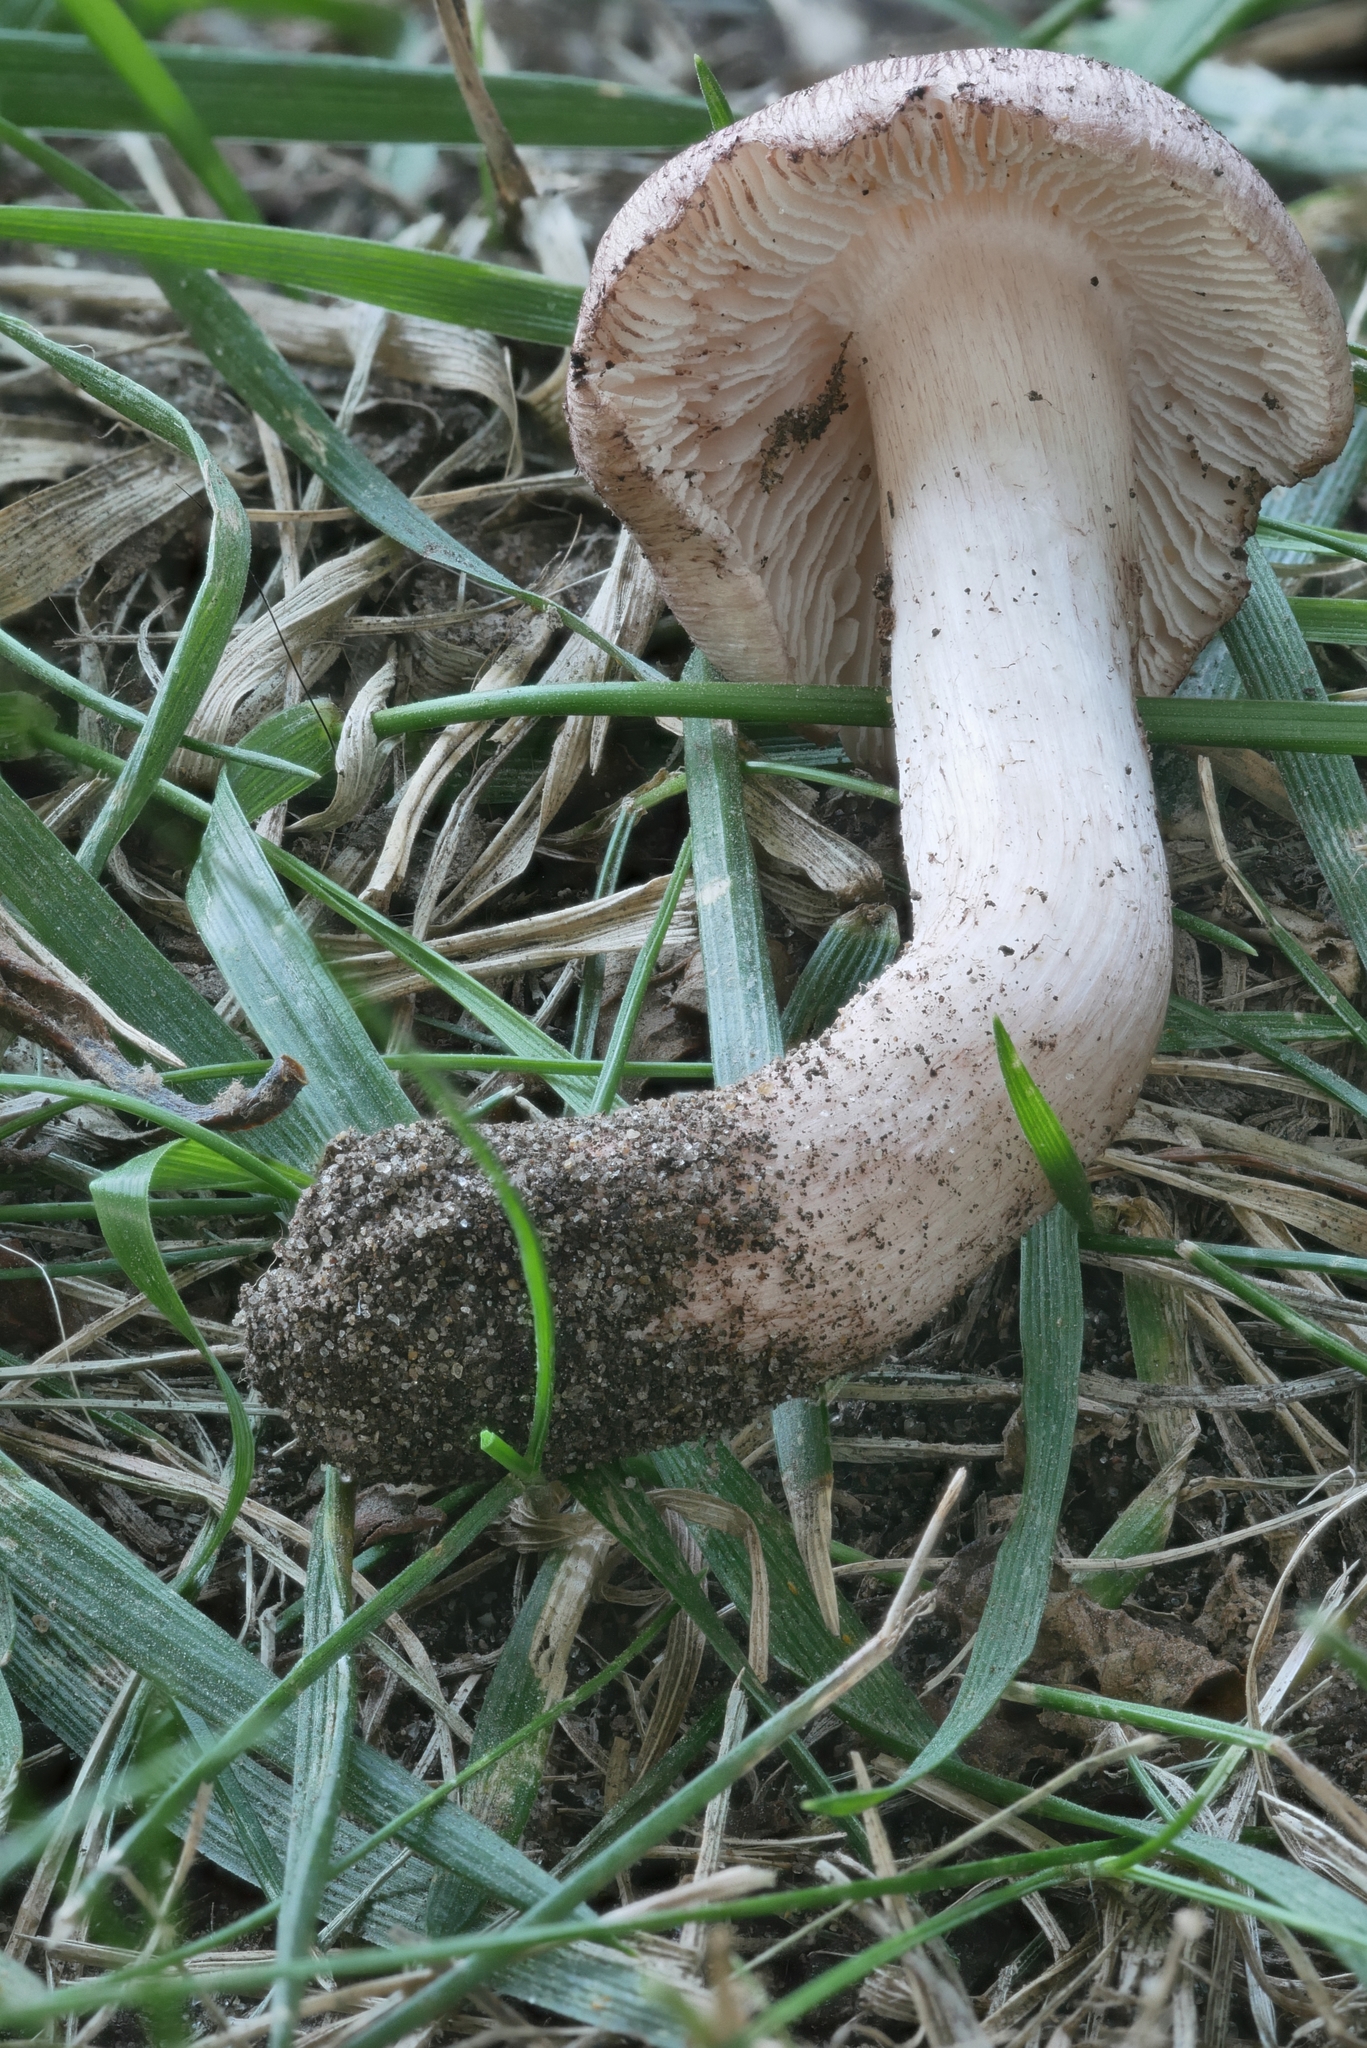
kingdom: Fungi
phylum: Basidiomycota
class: Agaricomycetes
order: Agaricales
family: Inocybaceae
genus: Inosperma
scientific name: Inosperma vinaceobrunneum
